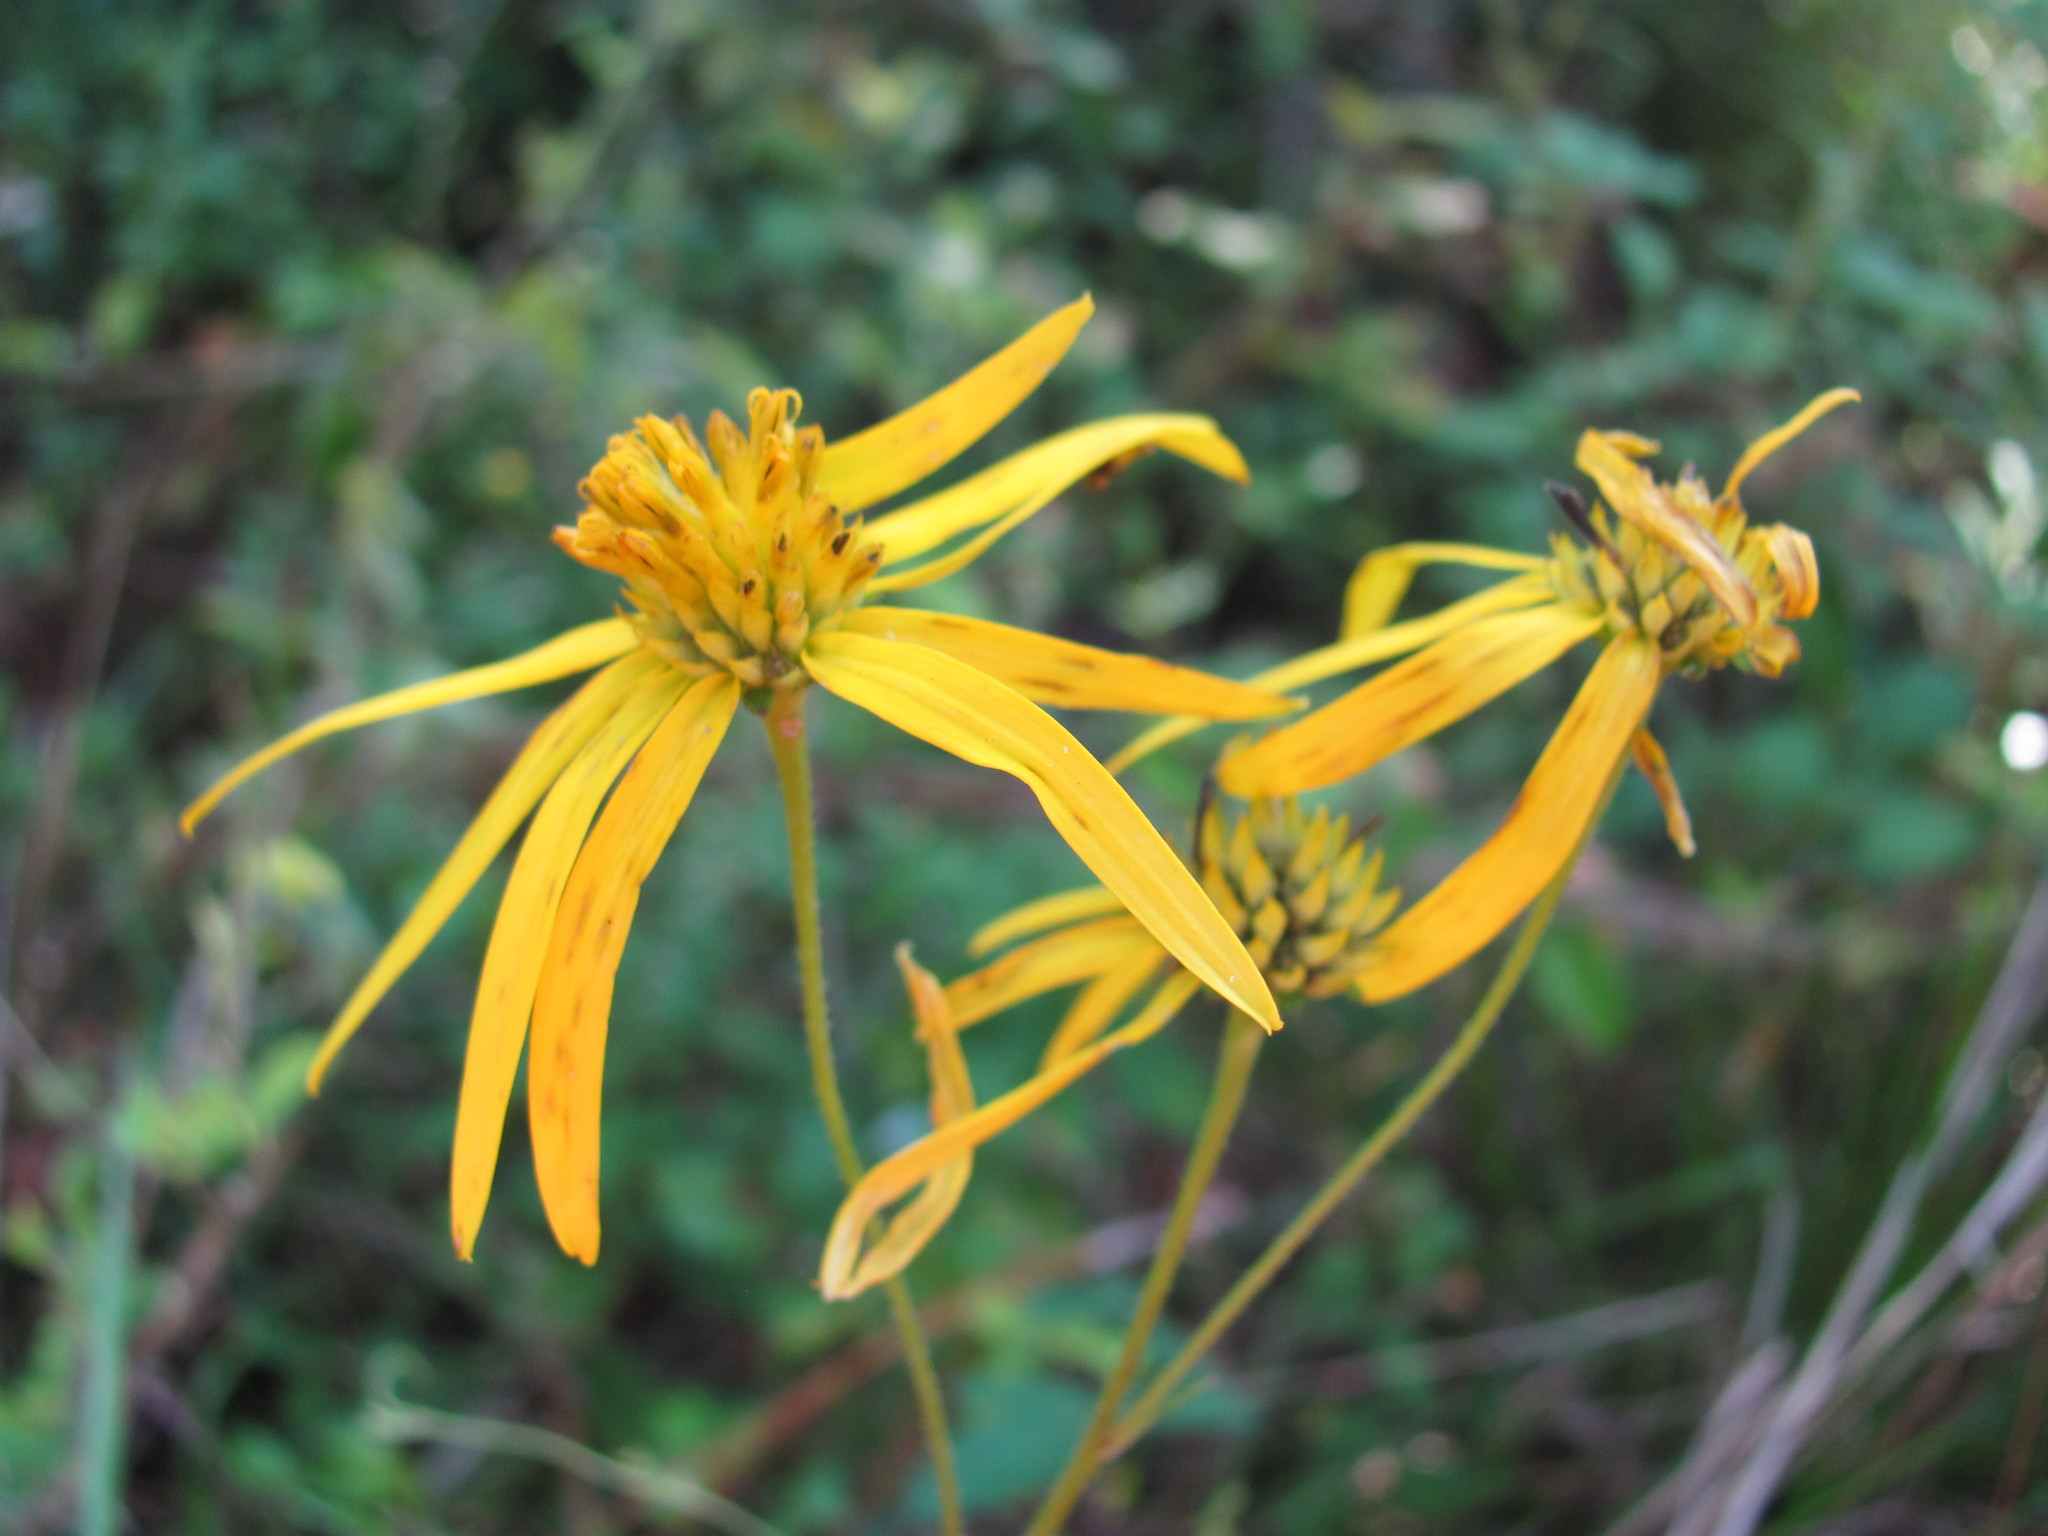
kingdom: Plantae
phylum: Tracheophyta
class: Magnoliopsida
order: Asterales
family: Asteraceae
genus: Verbesina
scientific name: Verbesina aristata
